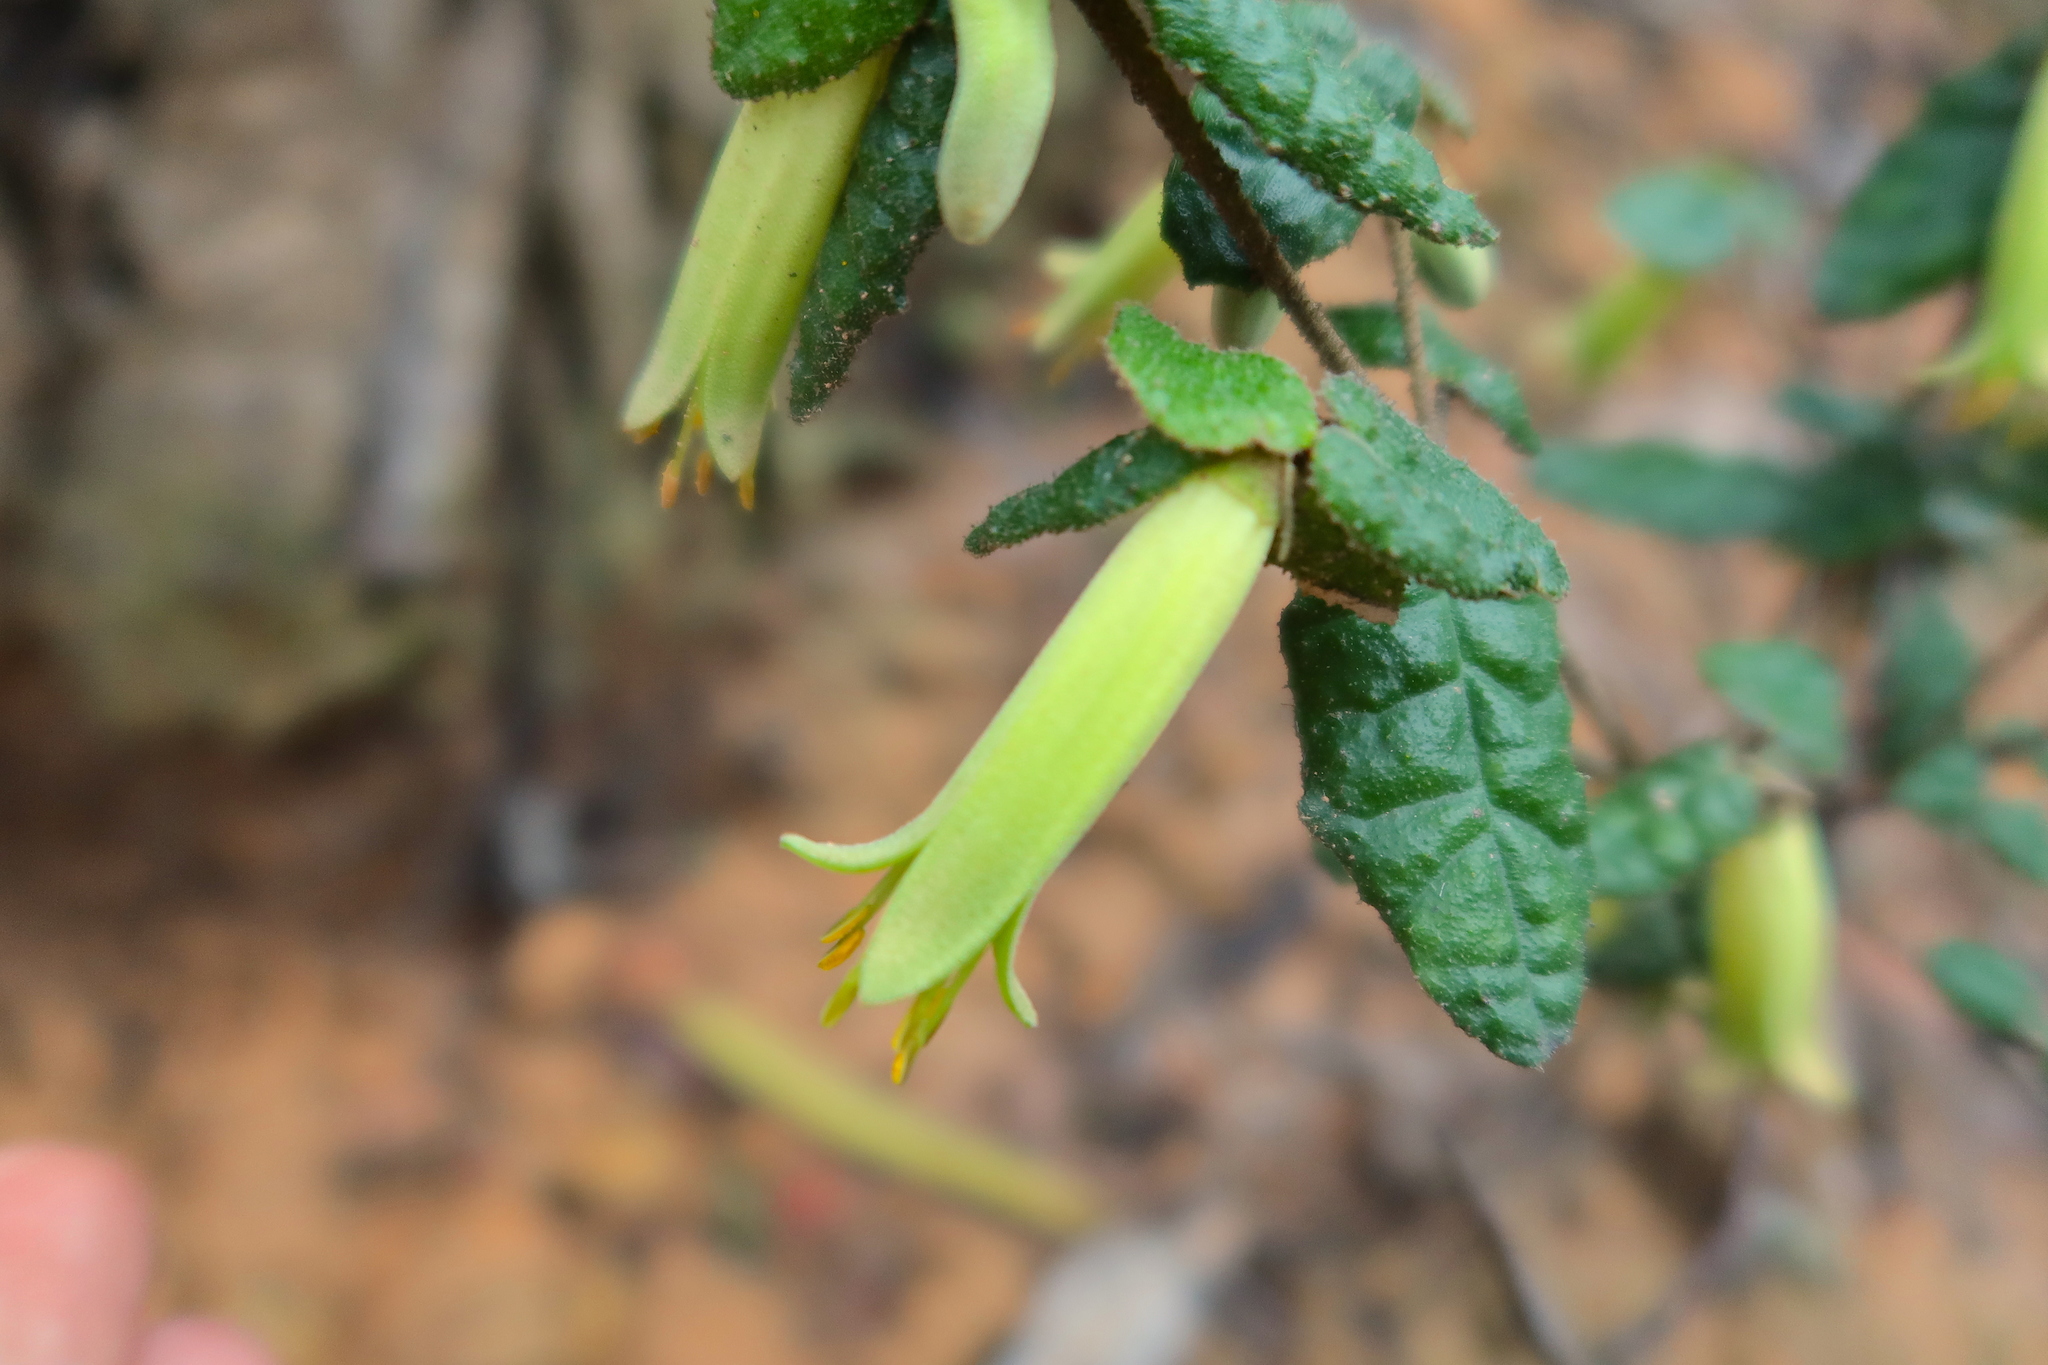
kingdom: Plantae
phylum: Tracheophyta
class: Magnoliopsida
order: Sapindales
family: Rutaceae
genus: Correa
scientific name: Correa reflexa
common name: Common correa
